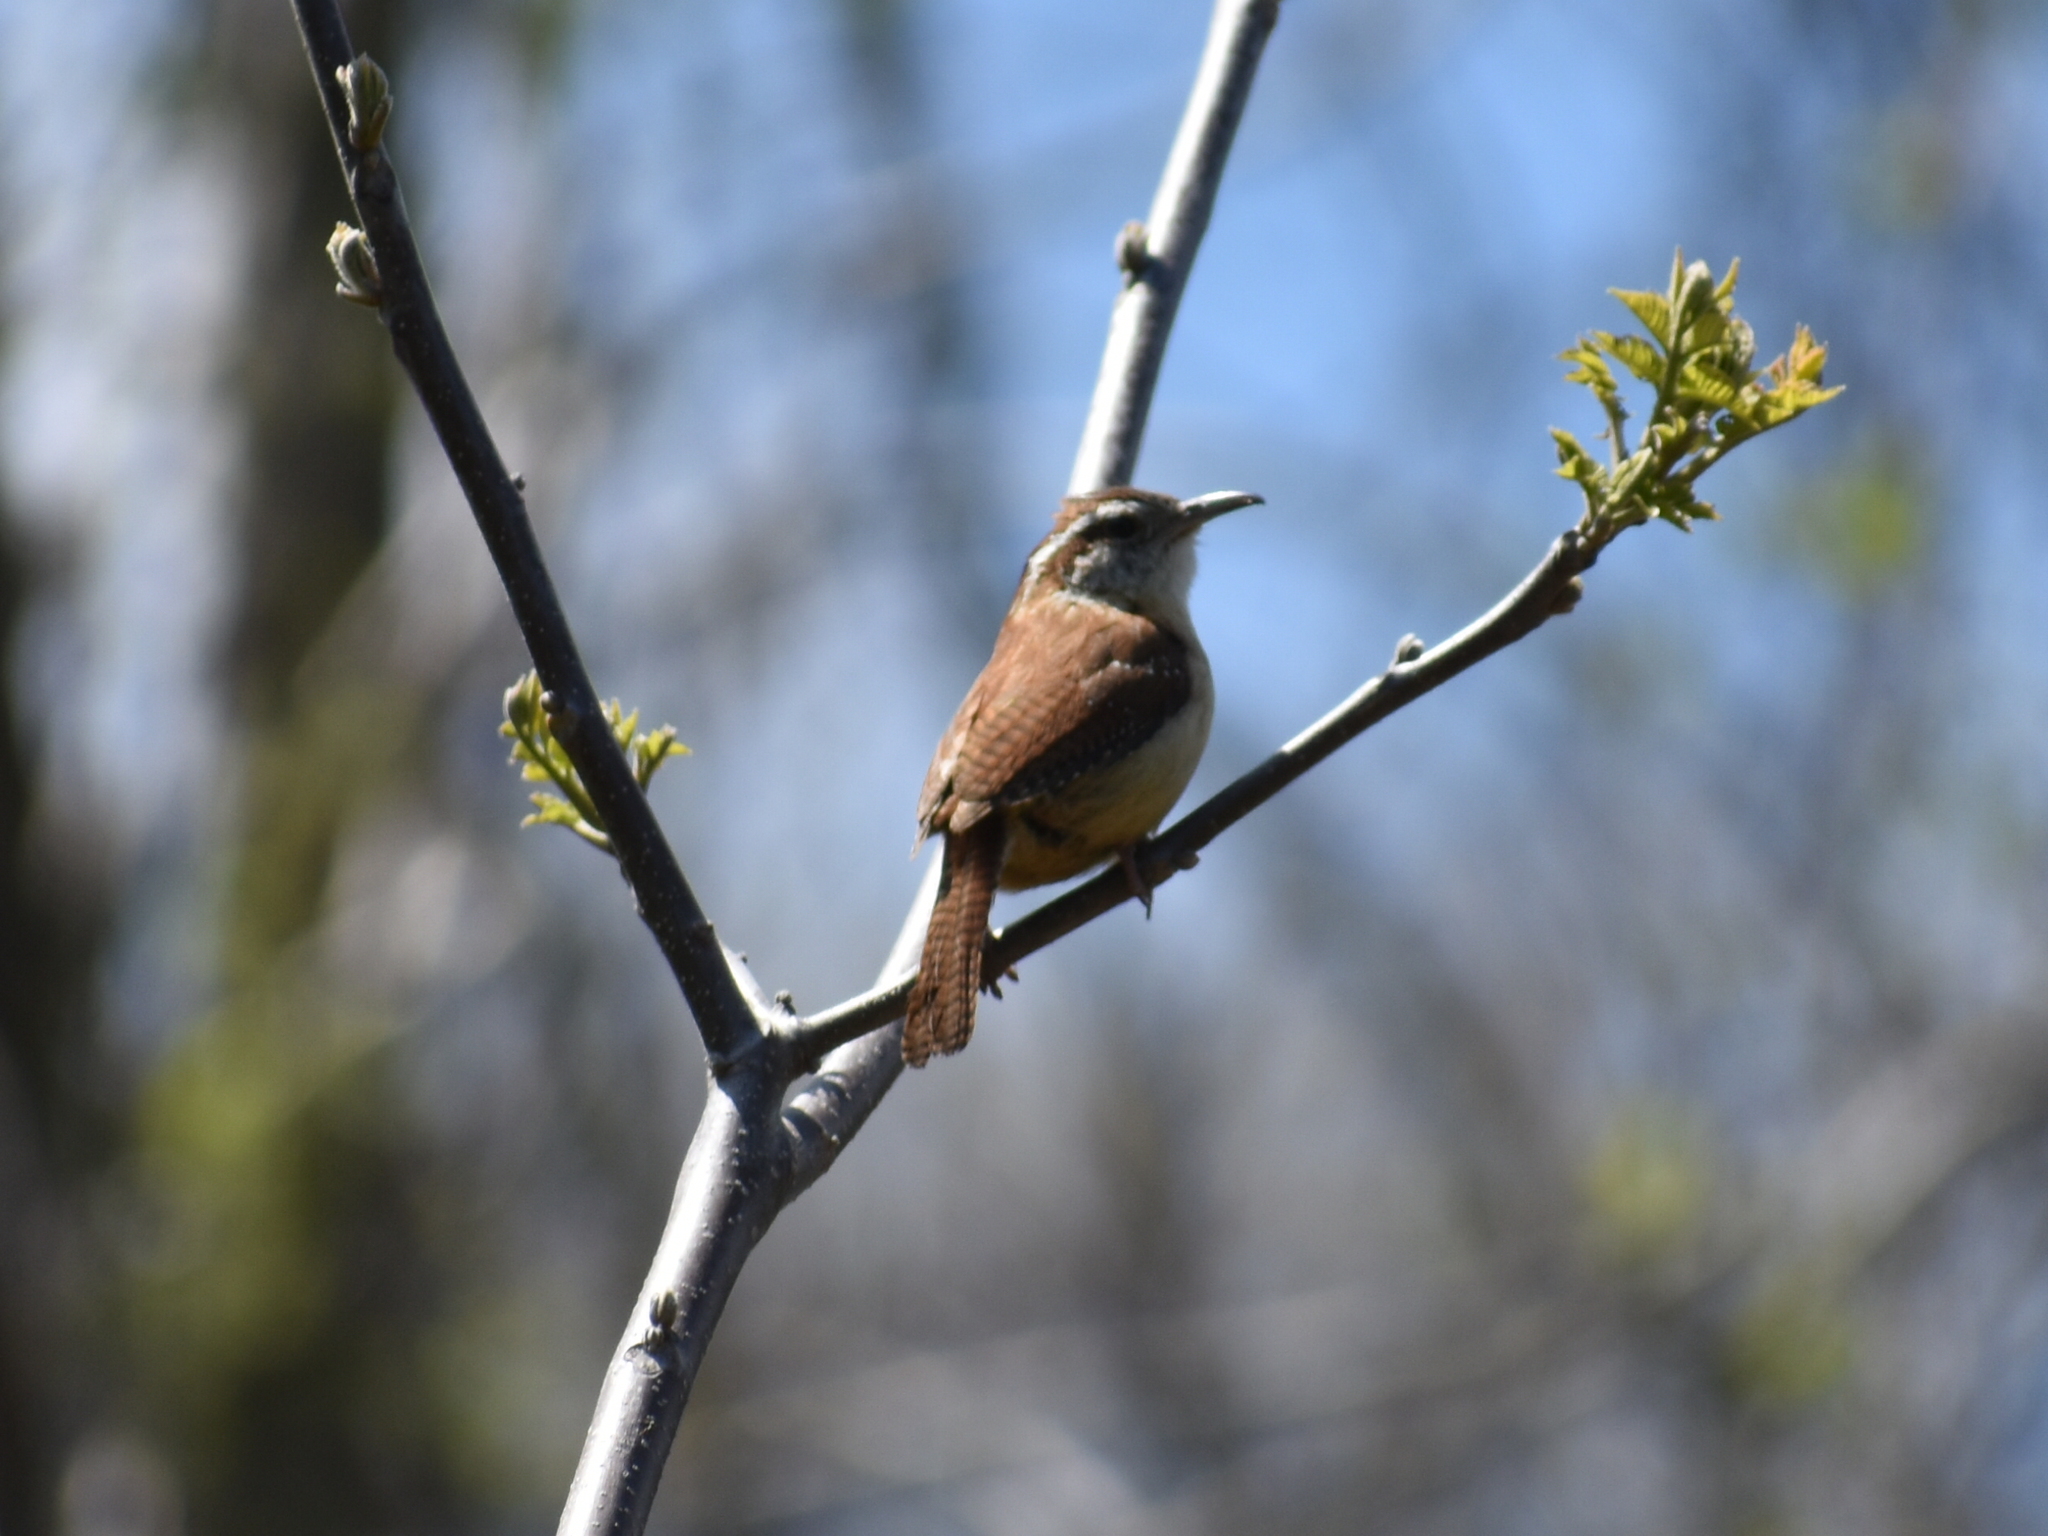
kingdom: Animalia
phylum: Chordata
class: Aves
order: Passeriformes
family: Troglodytidae
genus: Thryothorus
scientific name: Thryothorus ludovicianus
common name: Carolina wren
